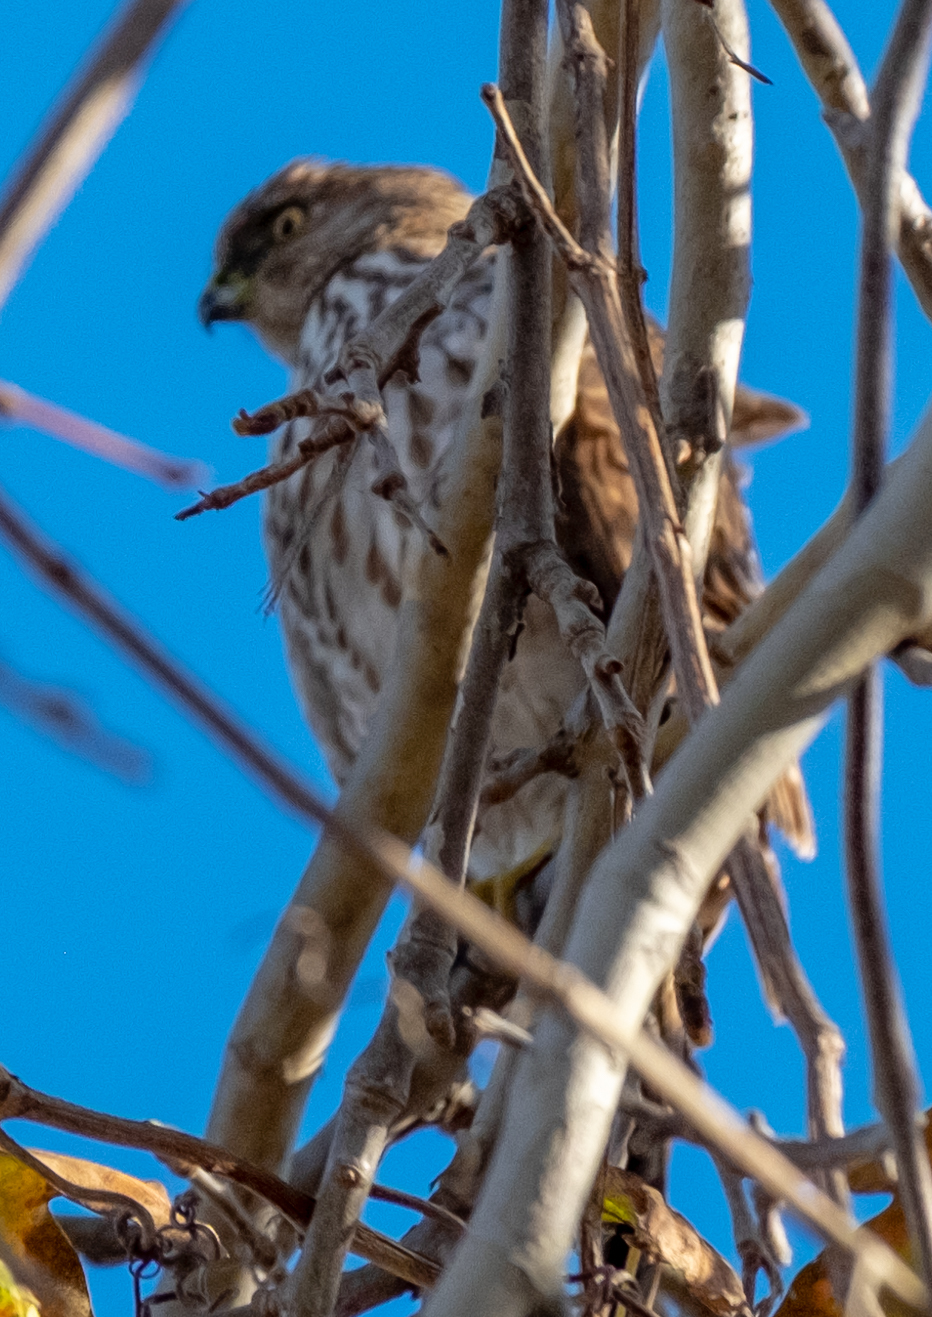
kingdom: Animalia
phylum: Chordata
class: Aves
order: Accipitriformes
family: Accipitridae
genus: Accipiter
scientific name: Accipiter cooperii
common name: Cooper's hawk
